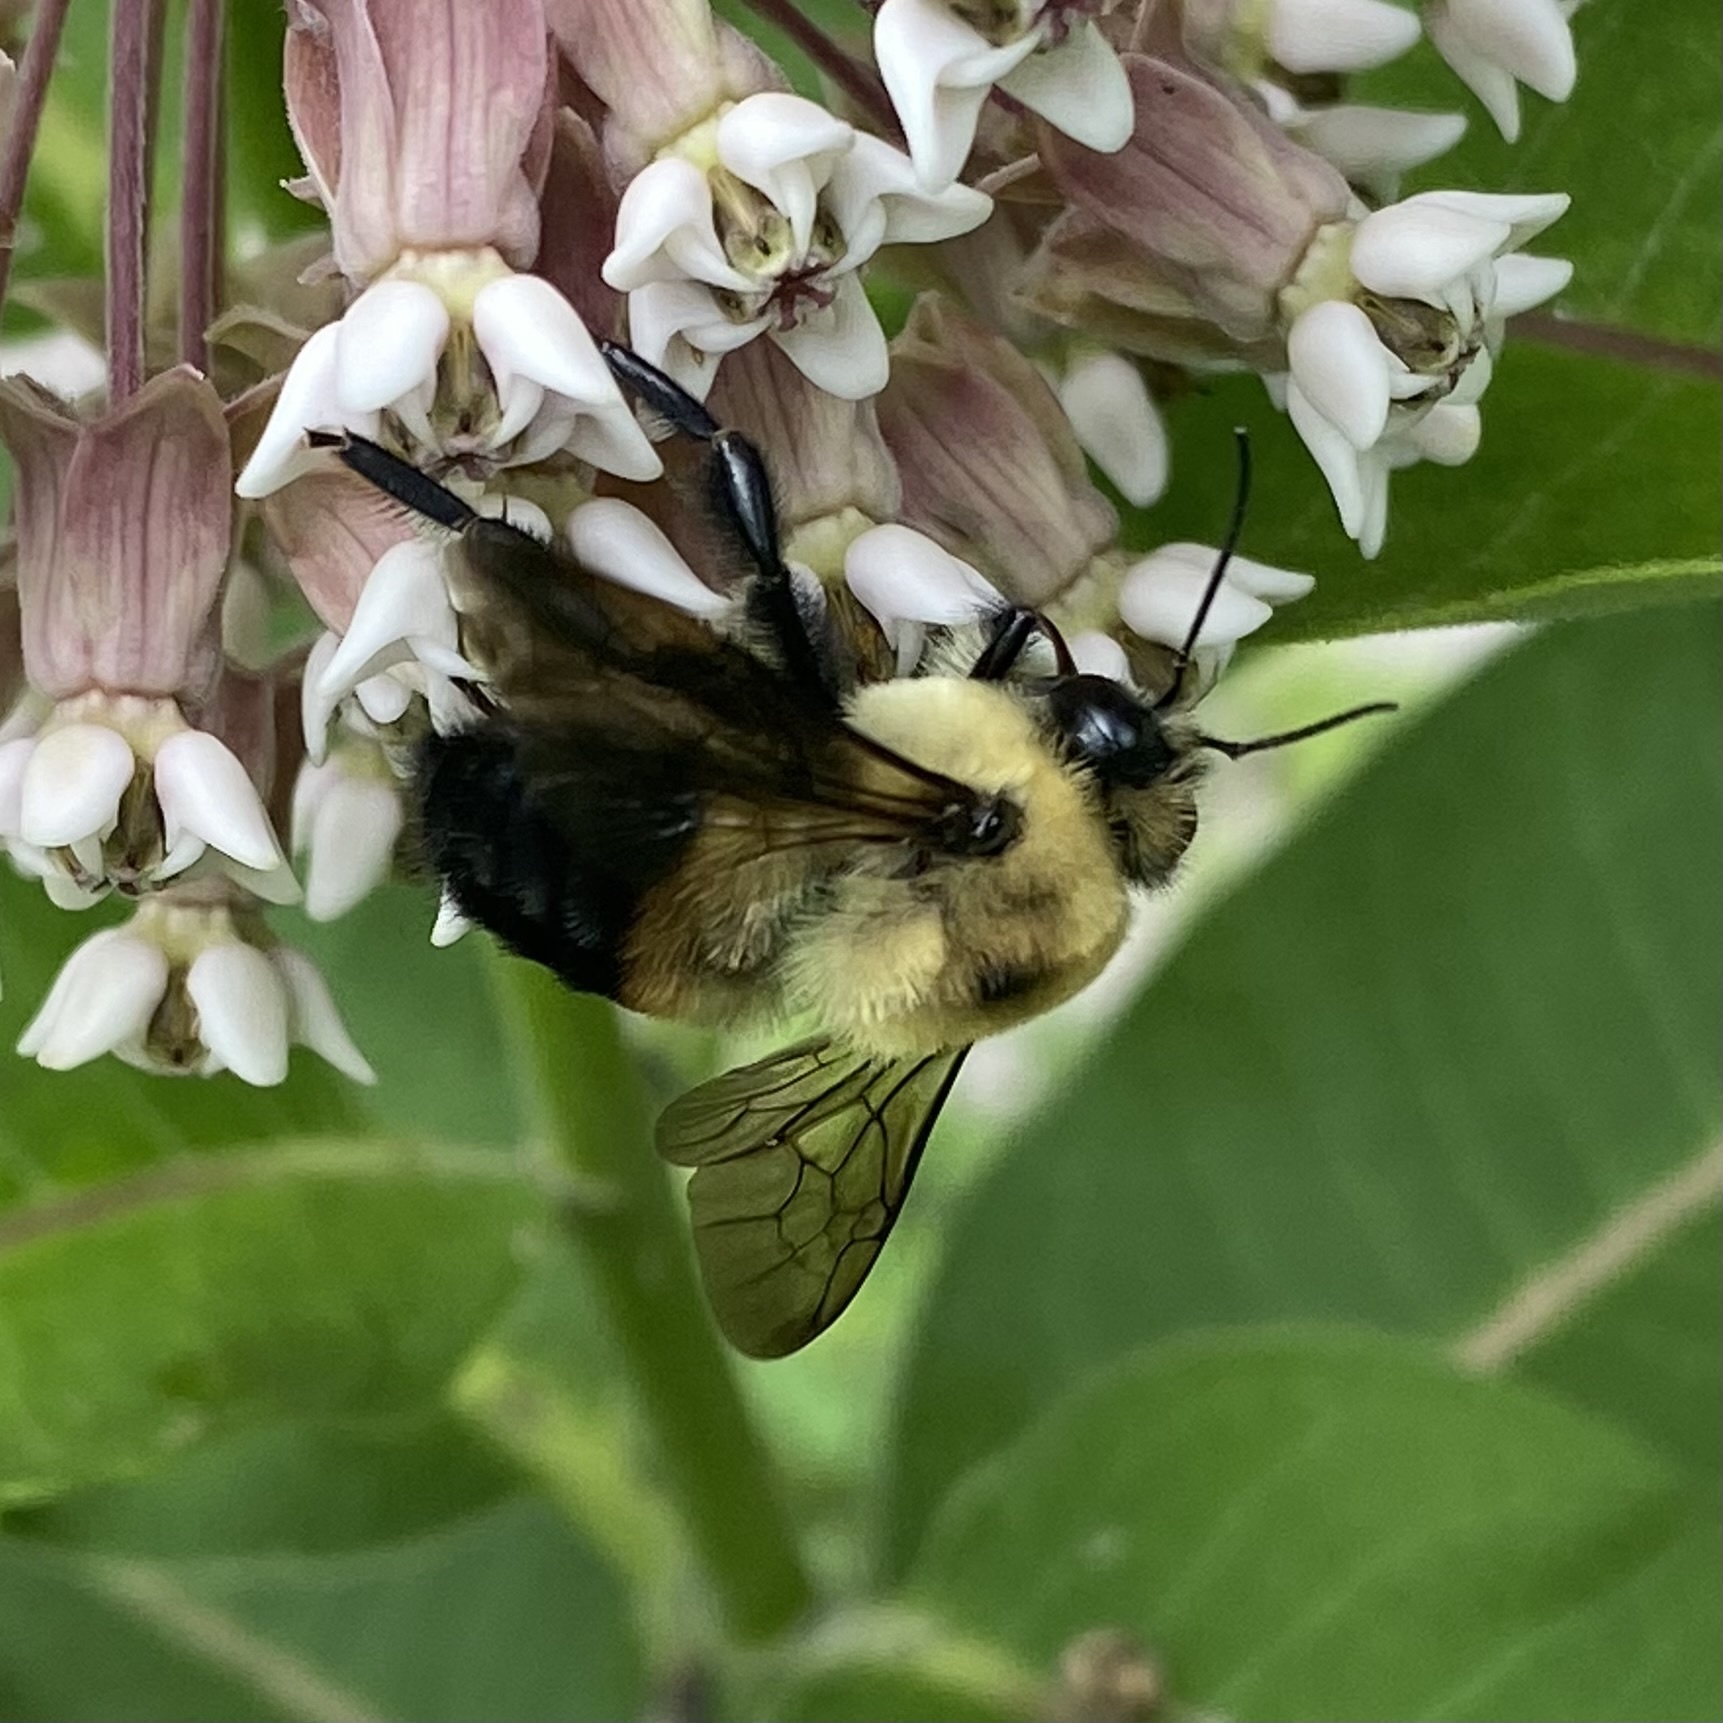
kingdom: Animalia
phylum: Arthropoda
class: Insecta
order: Hymenoptera
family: Apidae
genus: Bombus
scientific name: Bombus griseocollis
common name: Brown-belted bumble bee
